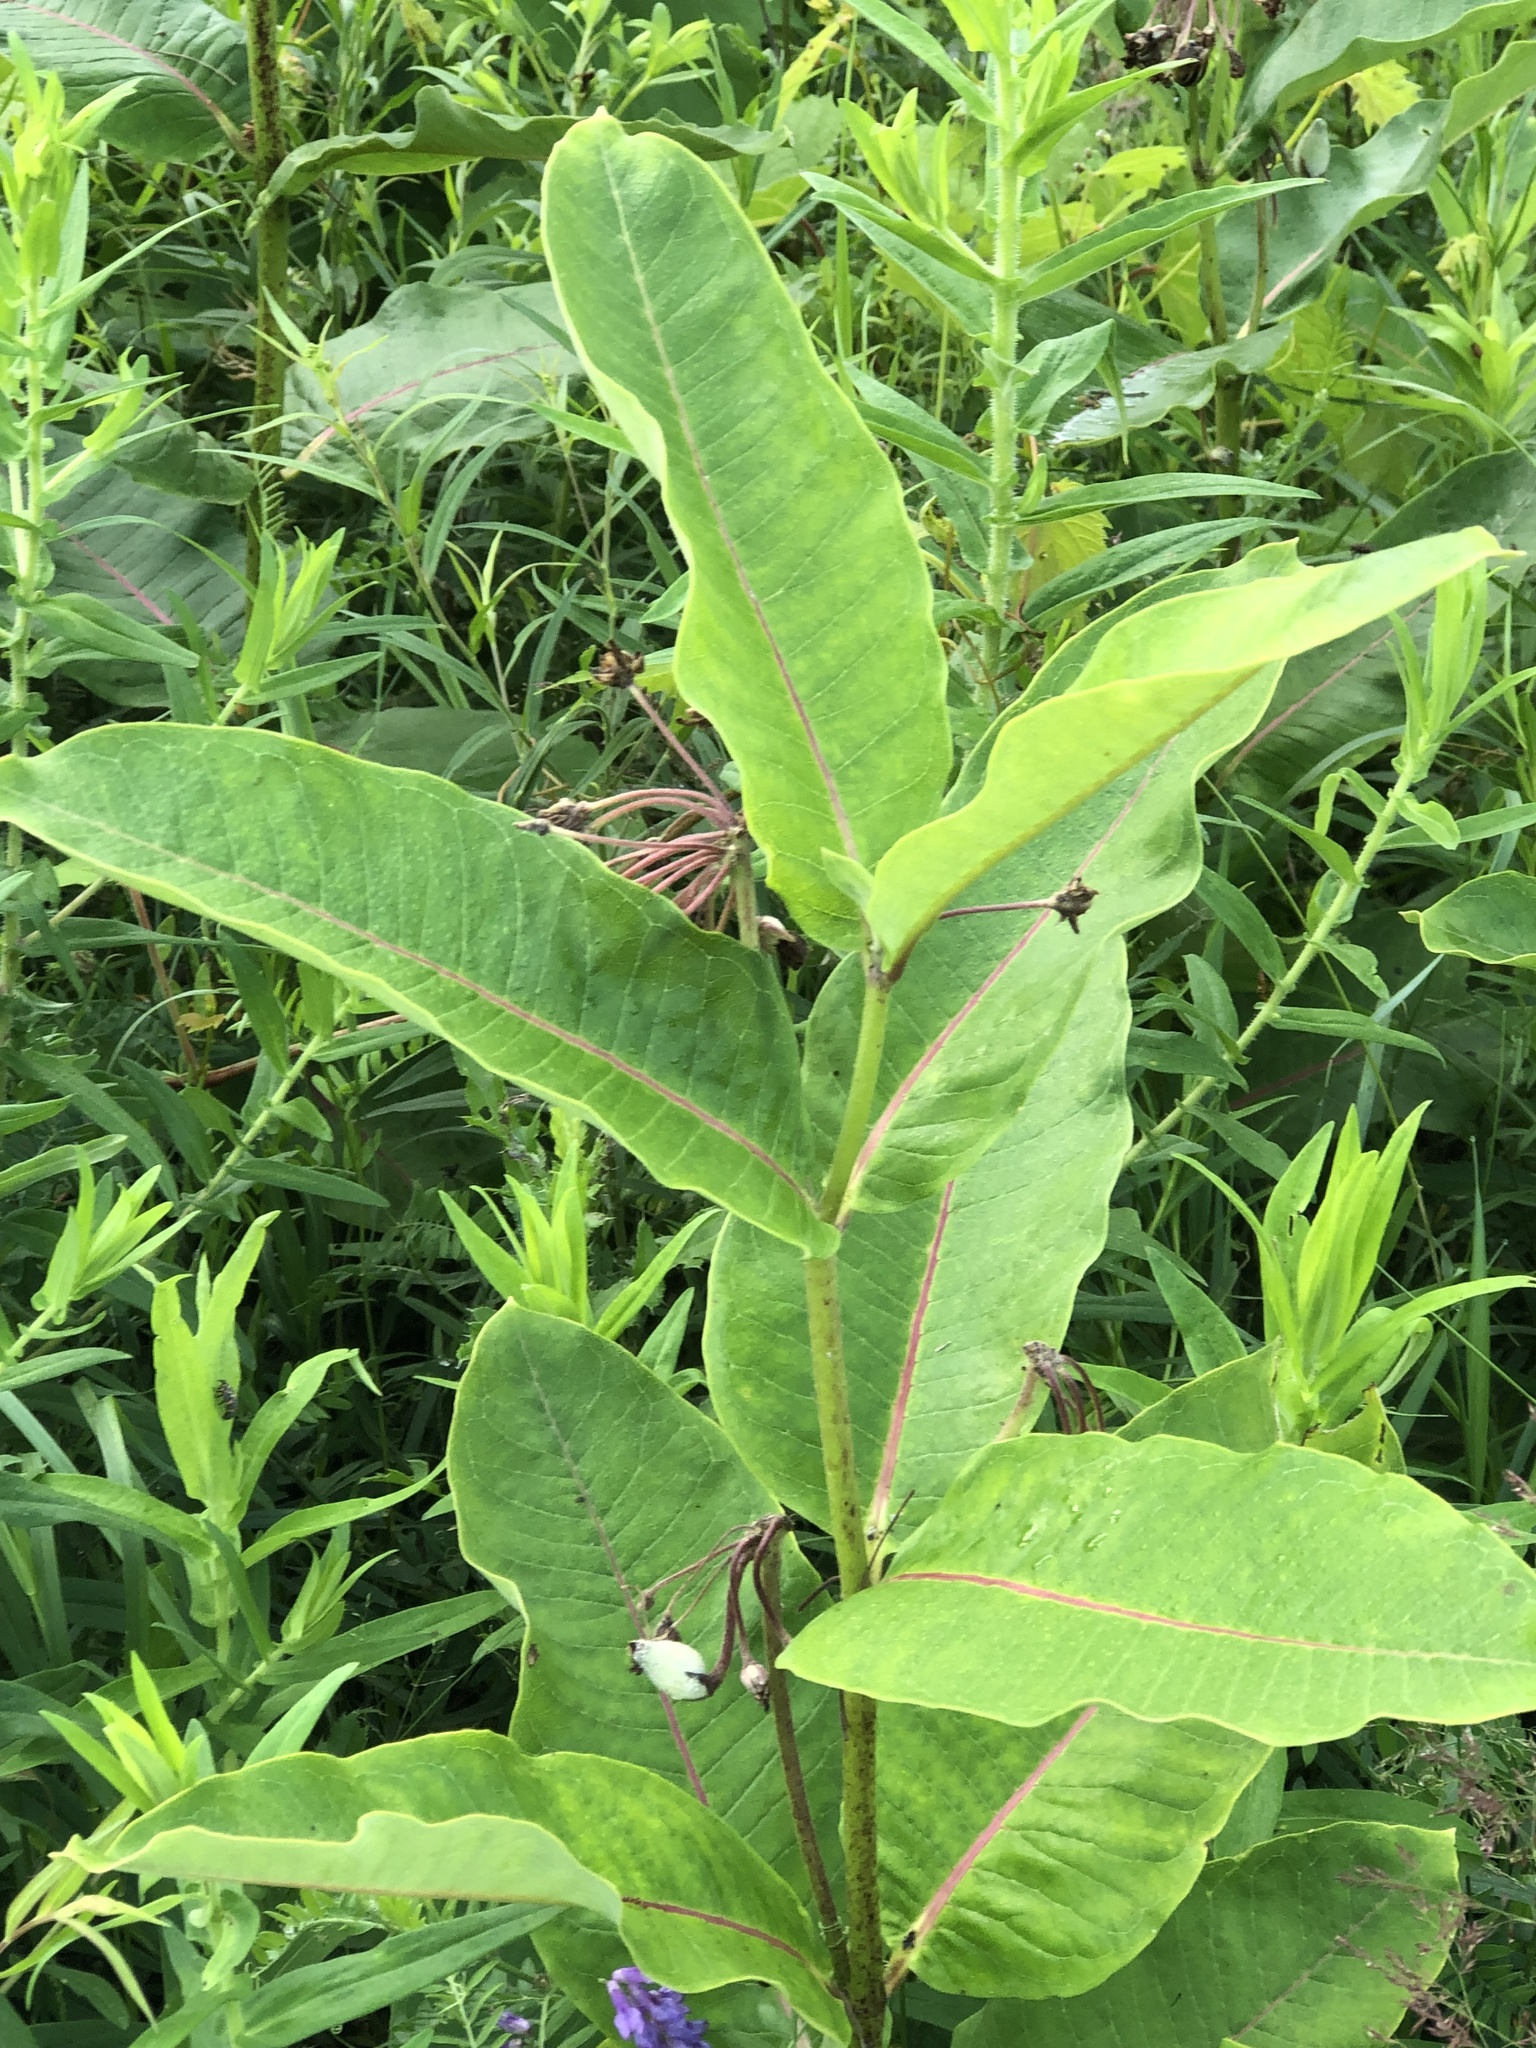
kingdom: Plantae
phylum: Tracheophyta
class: Magnoliopsida
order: Gentianales
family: Apocynaceae
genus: Asclepias
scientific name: Asclepias syriaca
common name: Common milkweed
